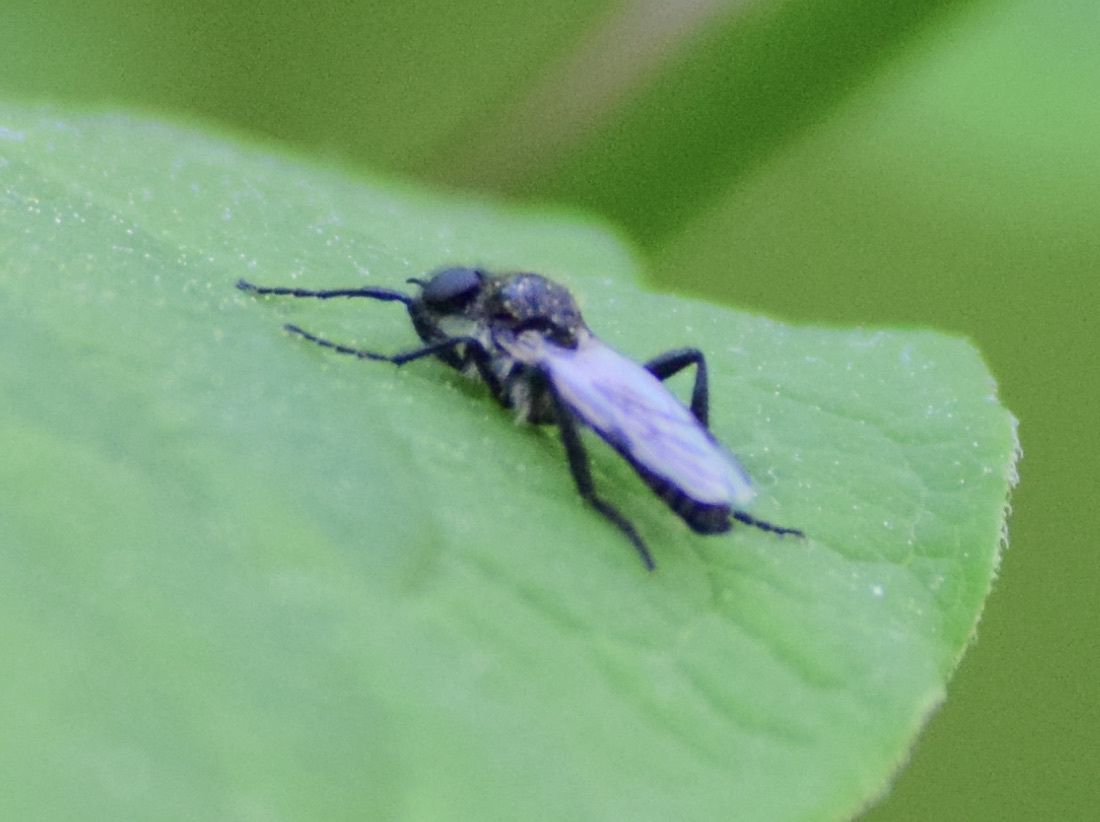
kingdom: Animalia
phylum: Arthropoda
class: Insecta
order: Diptera
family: Bibionidae
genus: Bibio
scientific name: Bibio albipennis
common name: White-winged march fly
